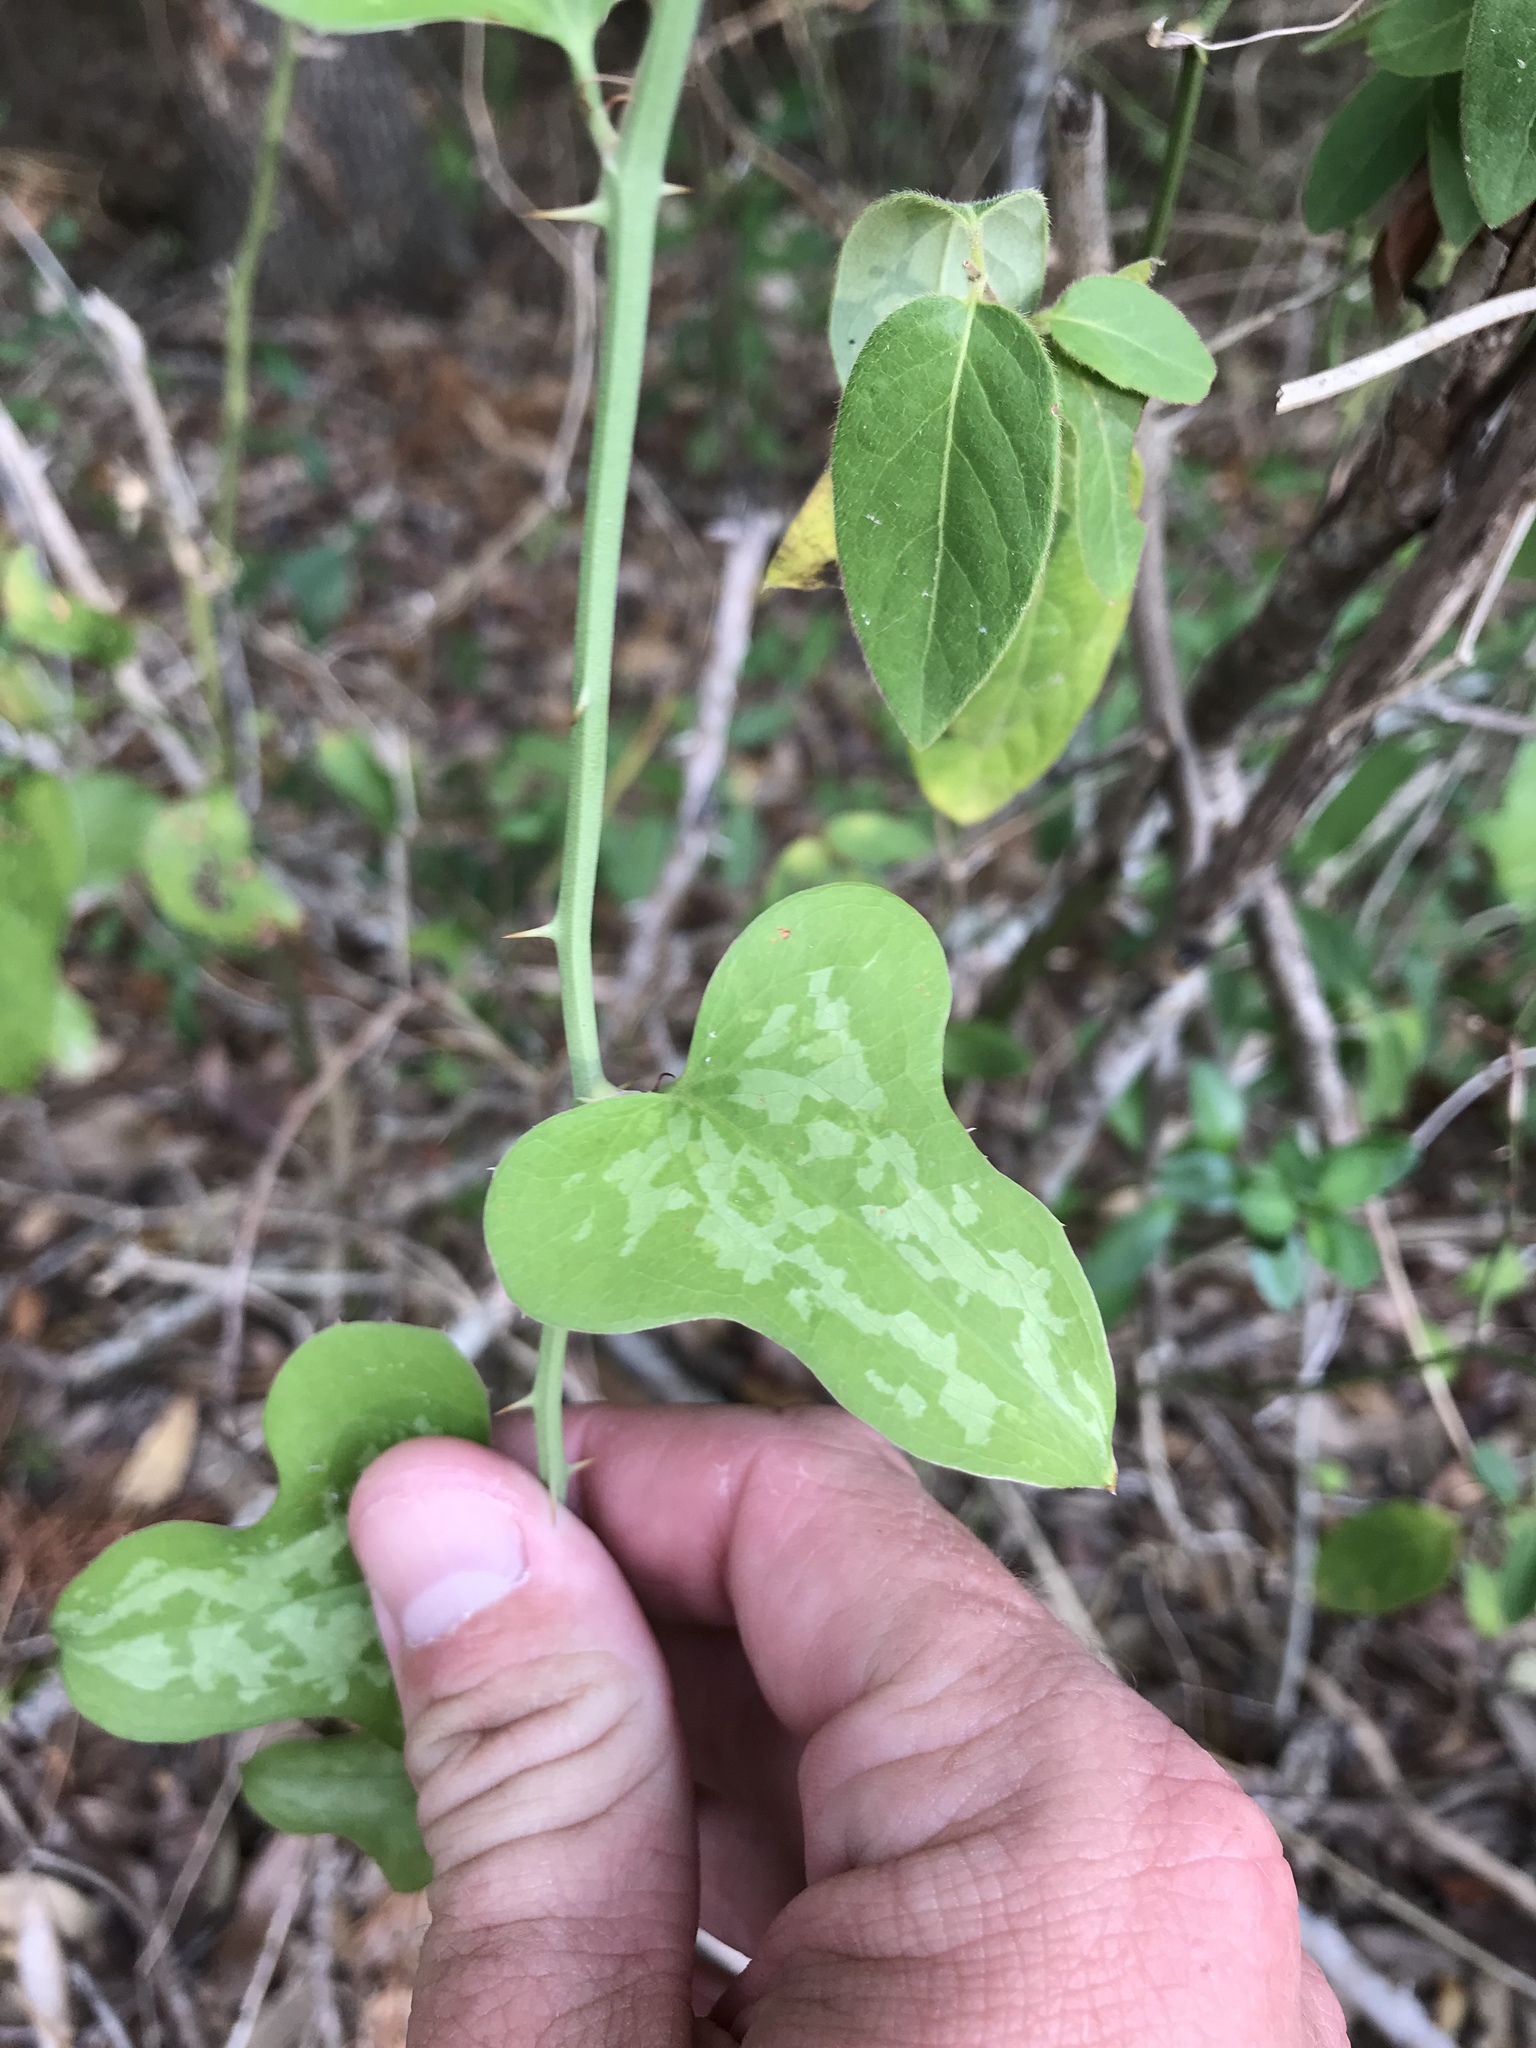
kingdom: Plantae
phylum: Tracheophyta
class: Liliopsida
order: Liliales
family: Smilacaceae
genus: Smilax
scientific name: Smilax bona-nox
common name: Catbrier
